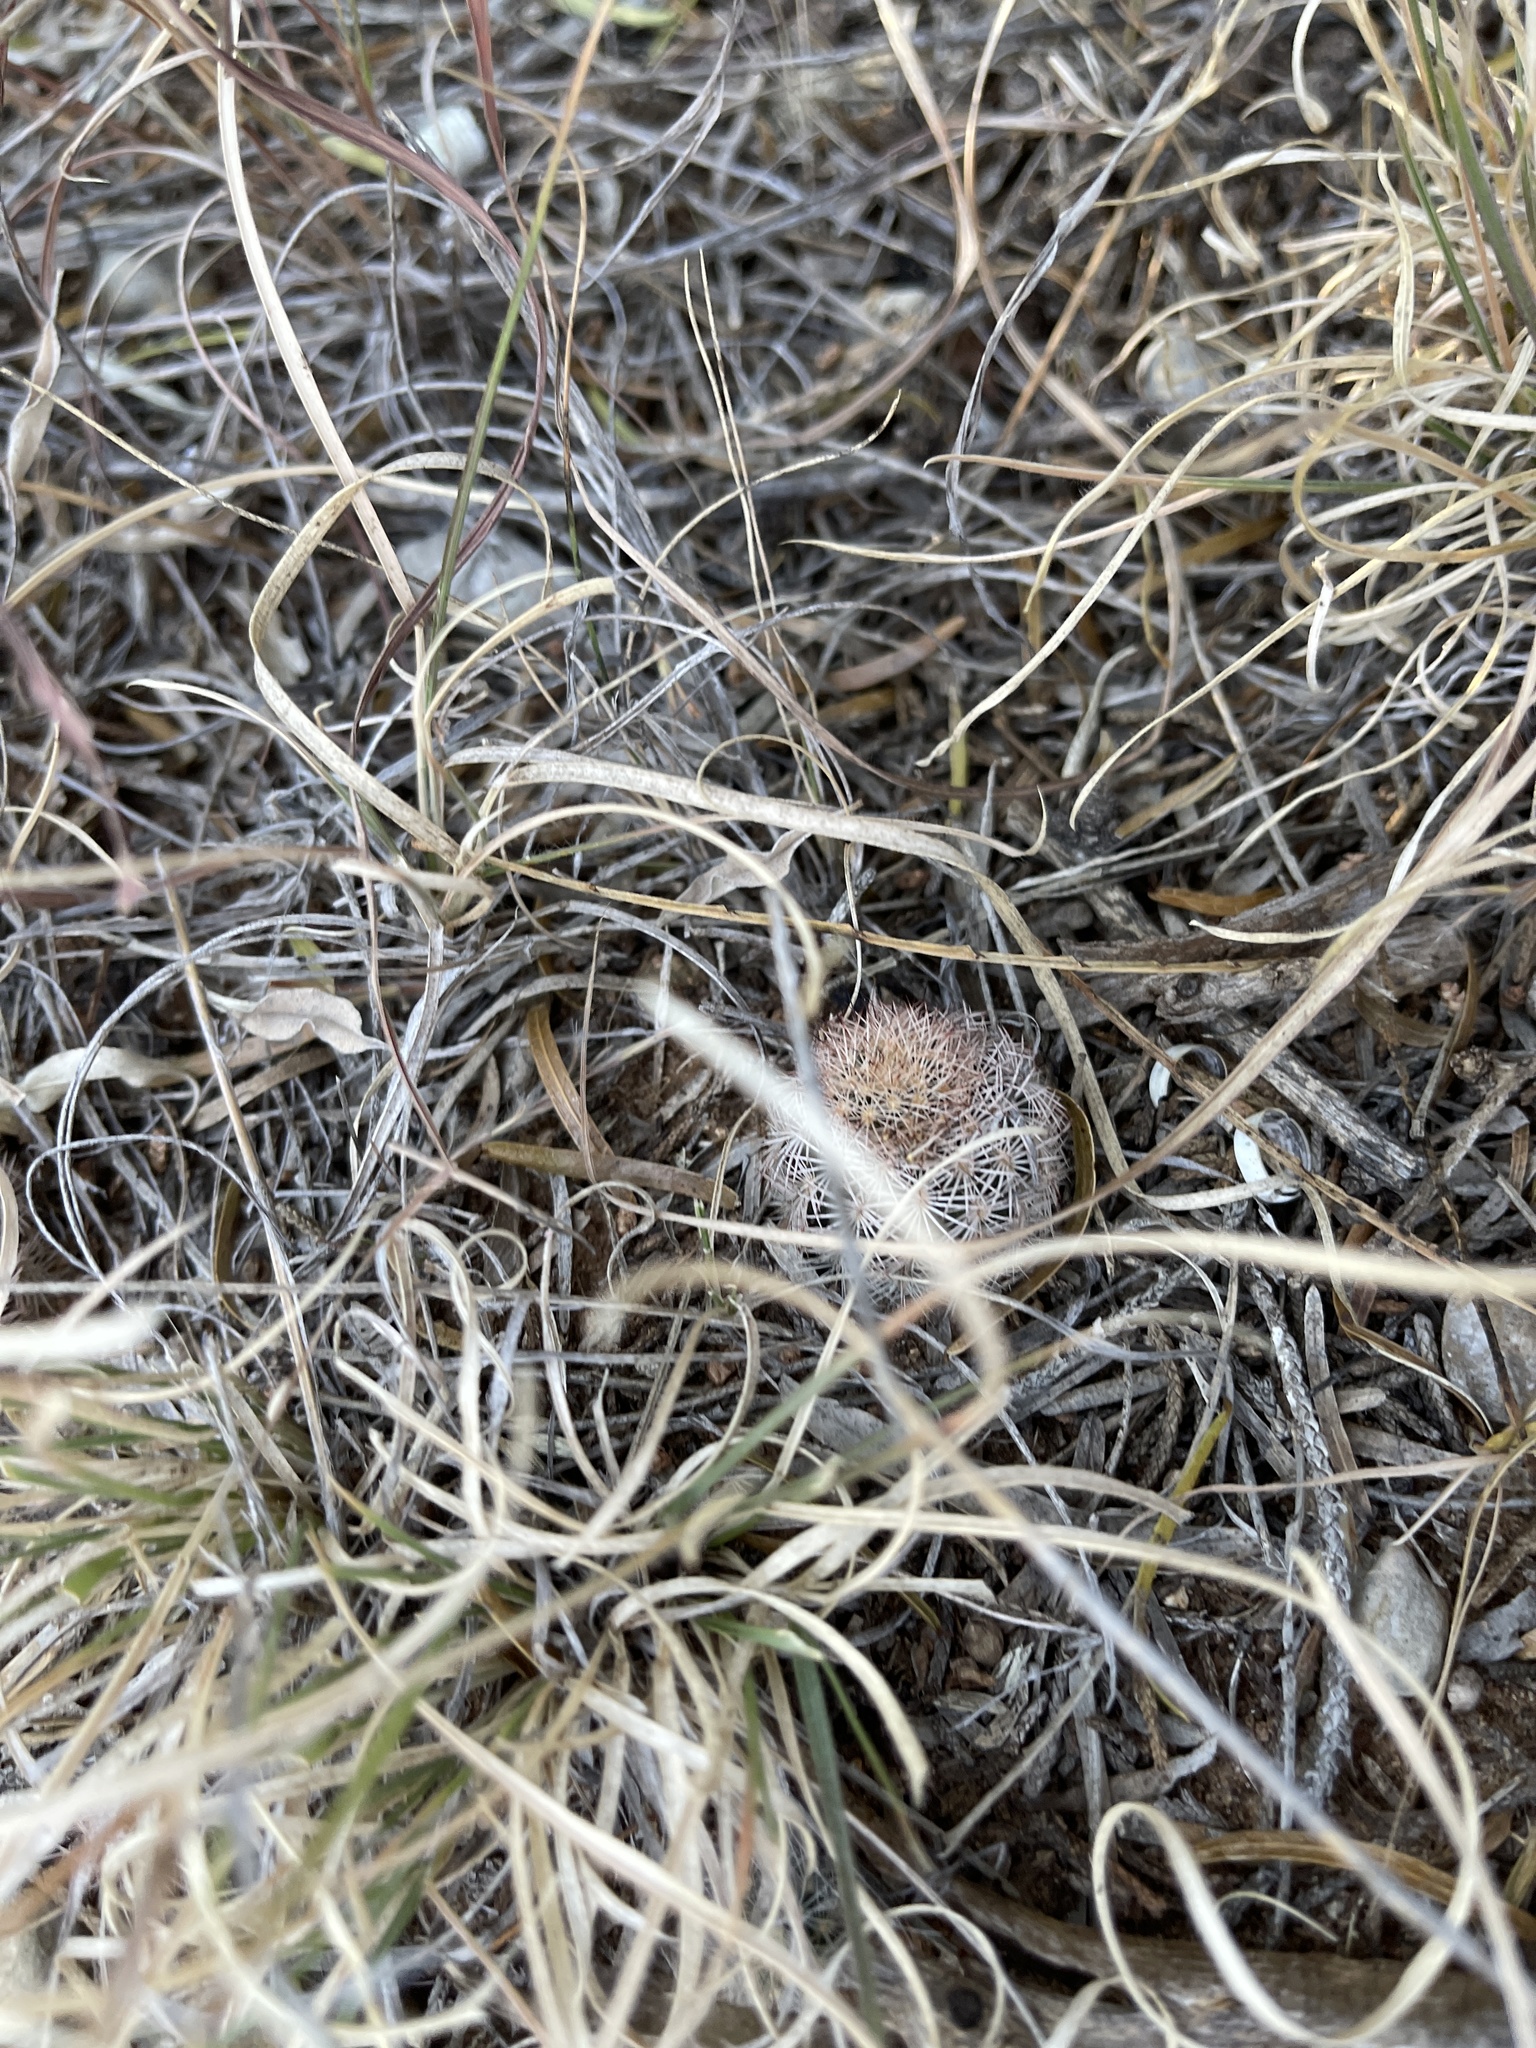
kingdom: Plantae
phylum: Tracheophyta
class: Magnoliopsida
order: Caryophyllales
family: Cactaceae
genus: Echinocereus
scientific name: Echinocereus reichenbachii
